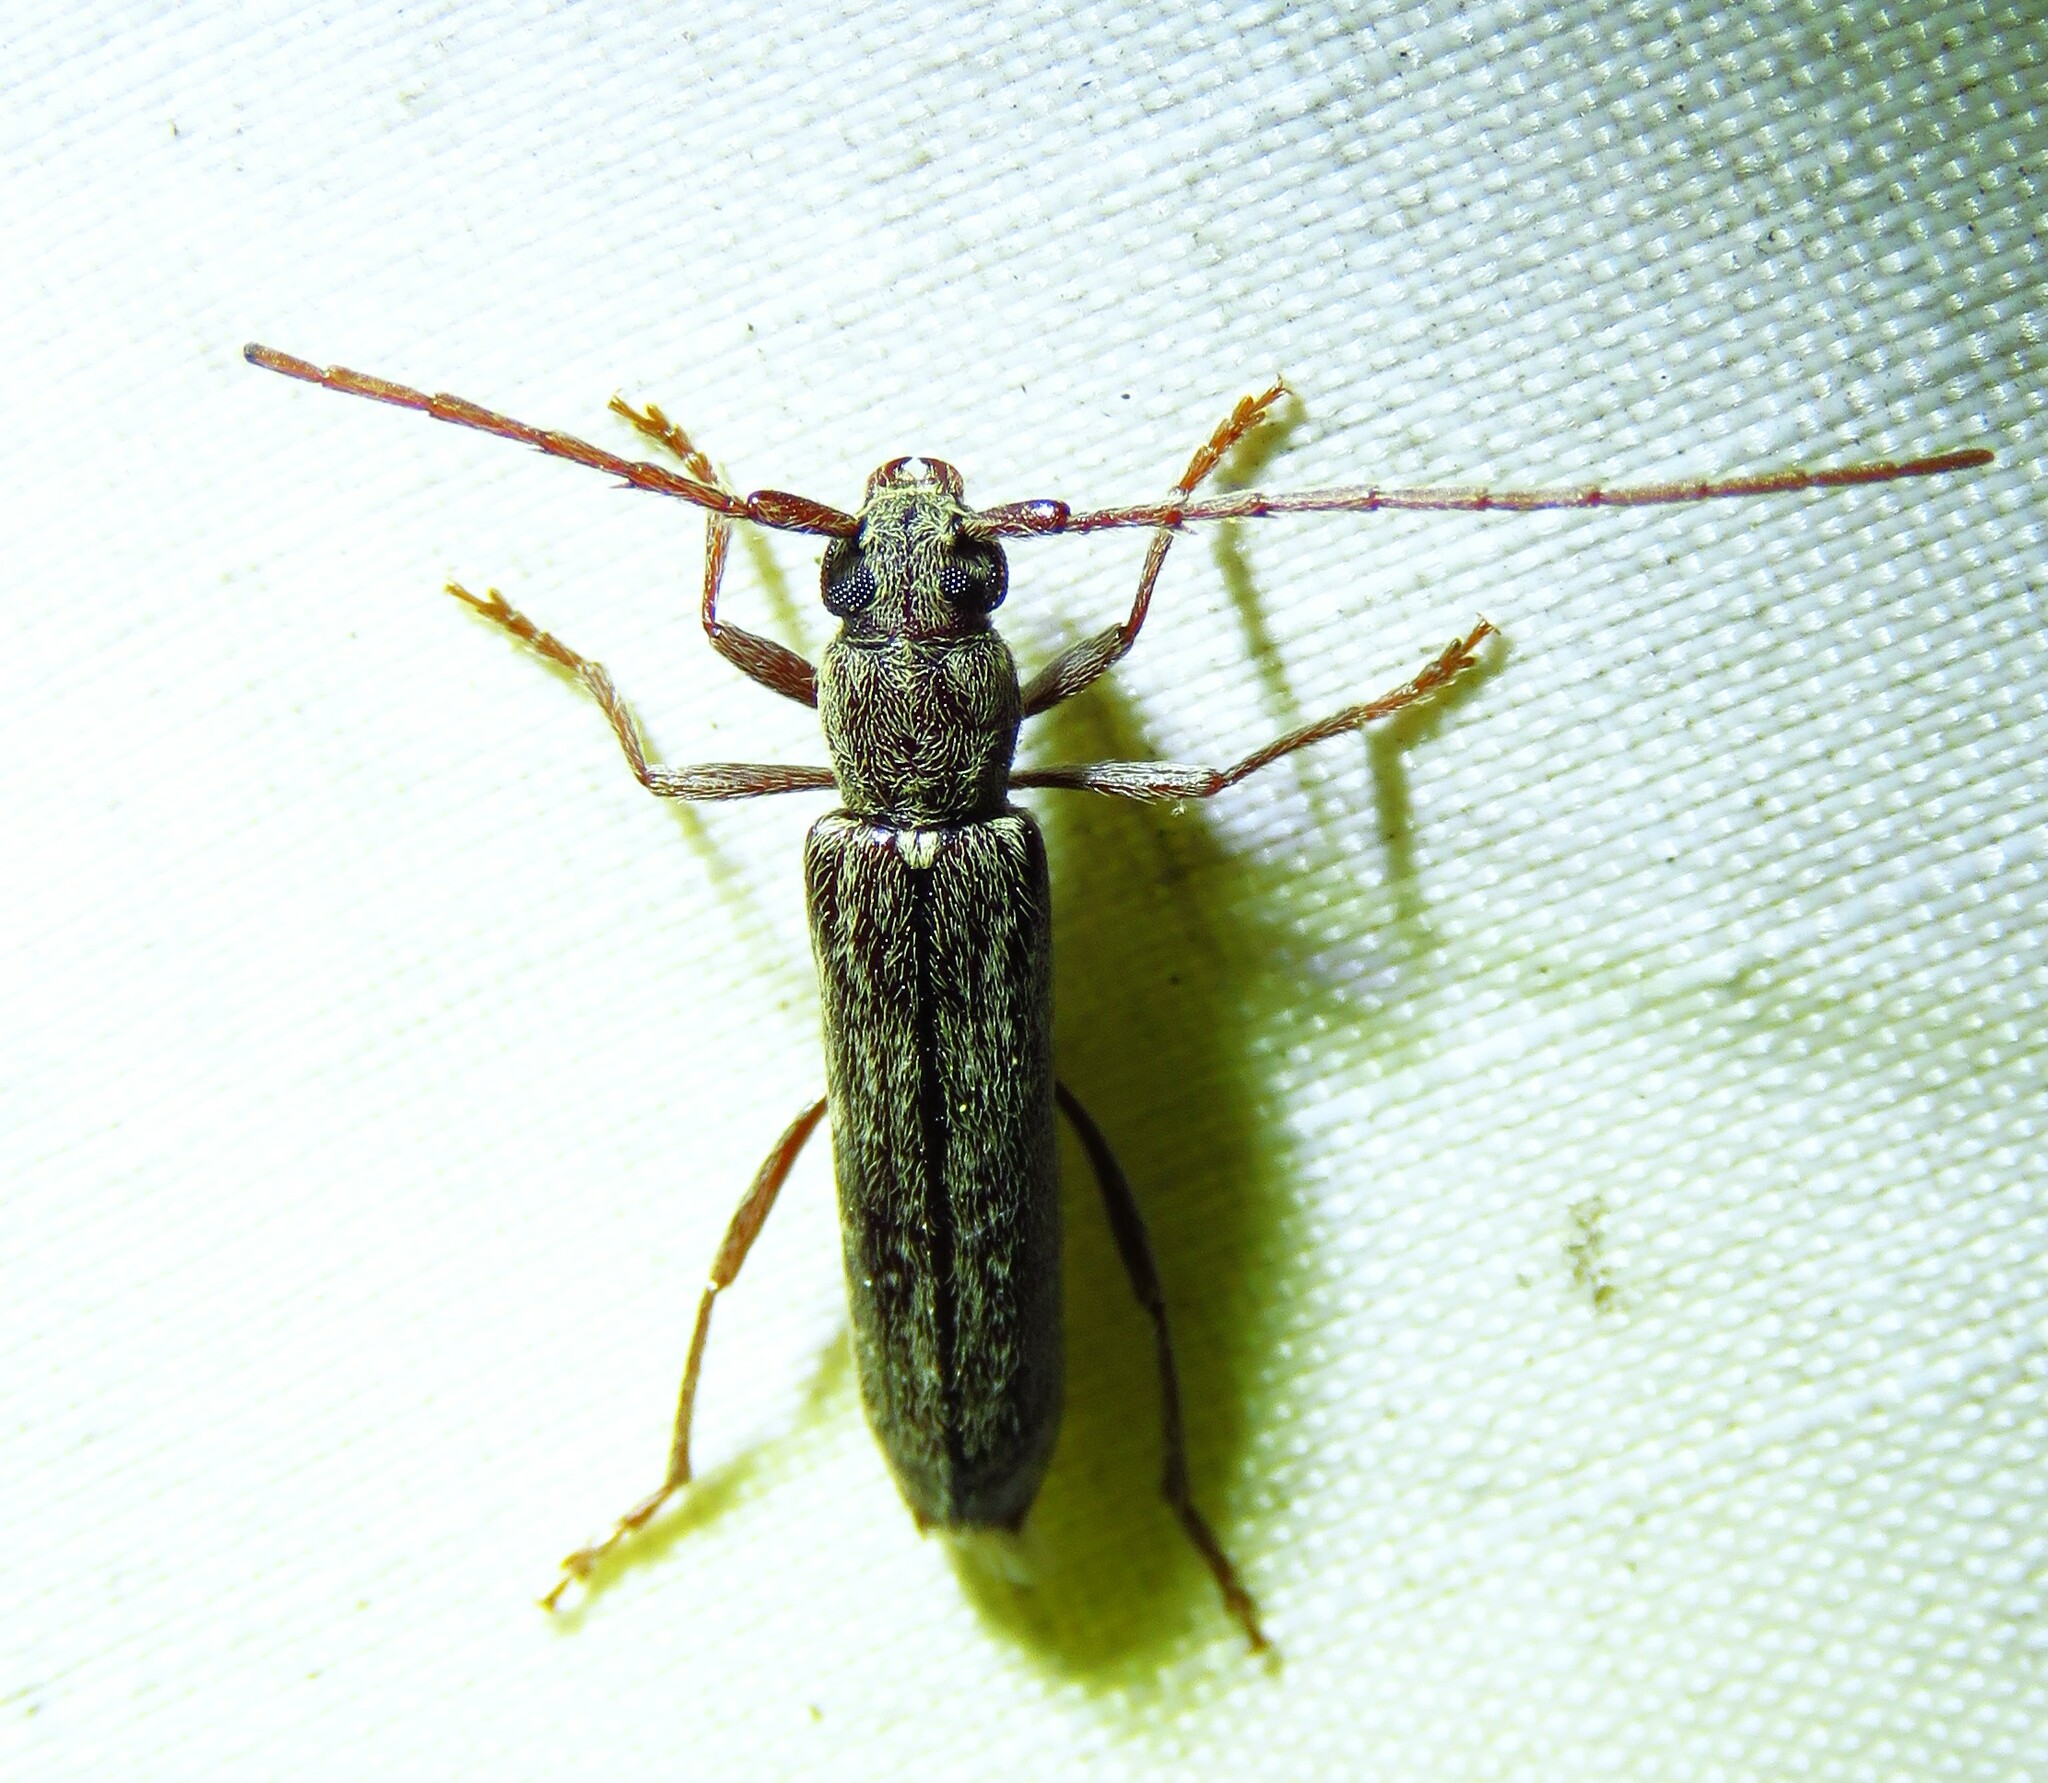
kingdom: Animalia
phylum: Arthropoda
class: Insecta
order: Coleoptera
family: Cerambycidae
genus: Anelaphus
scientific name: Anelaphus villosus
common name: Twig pruner
